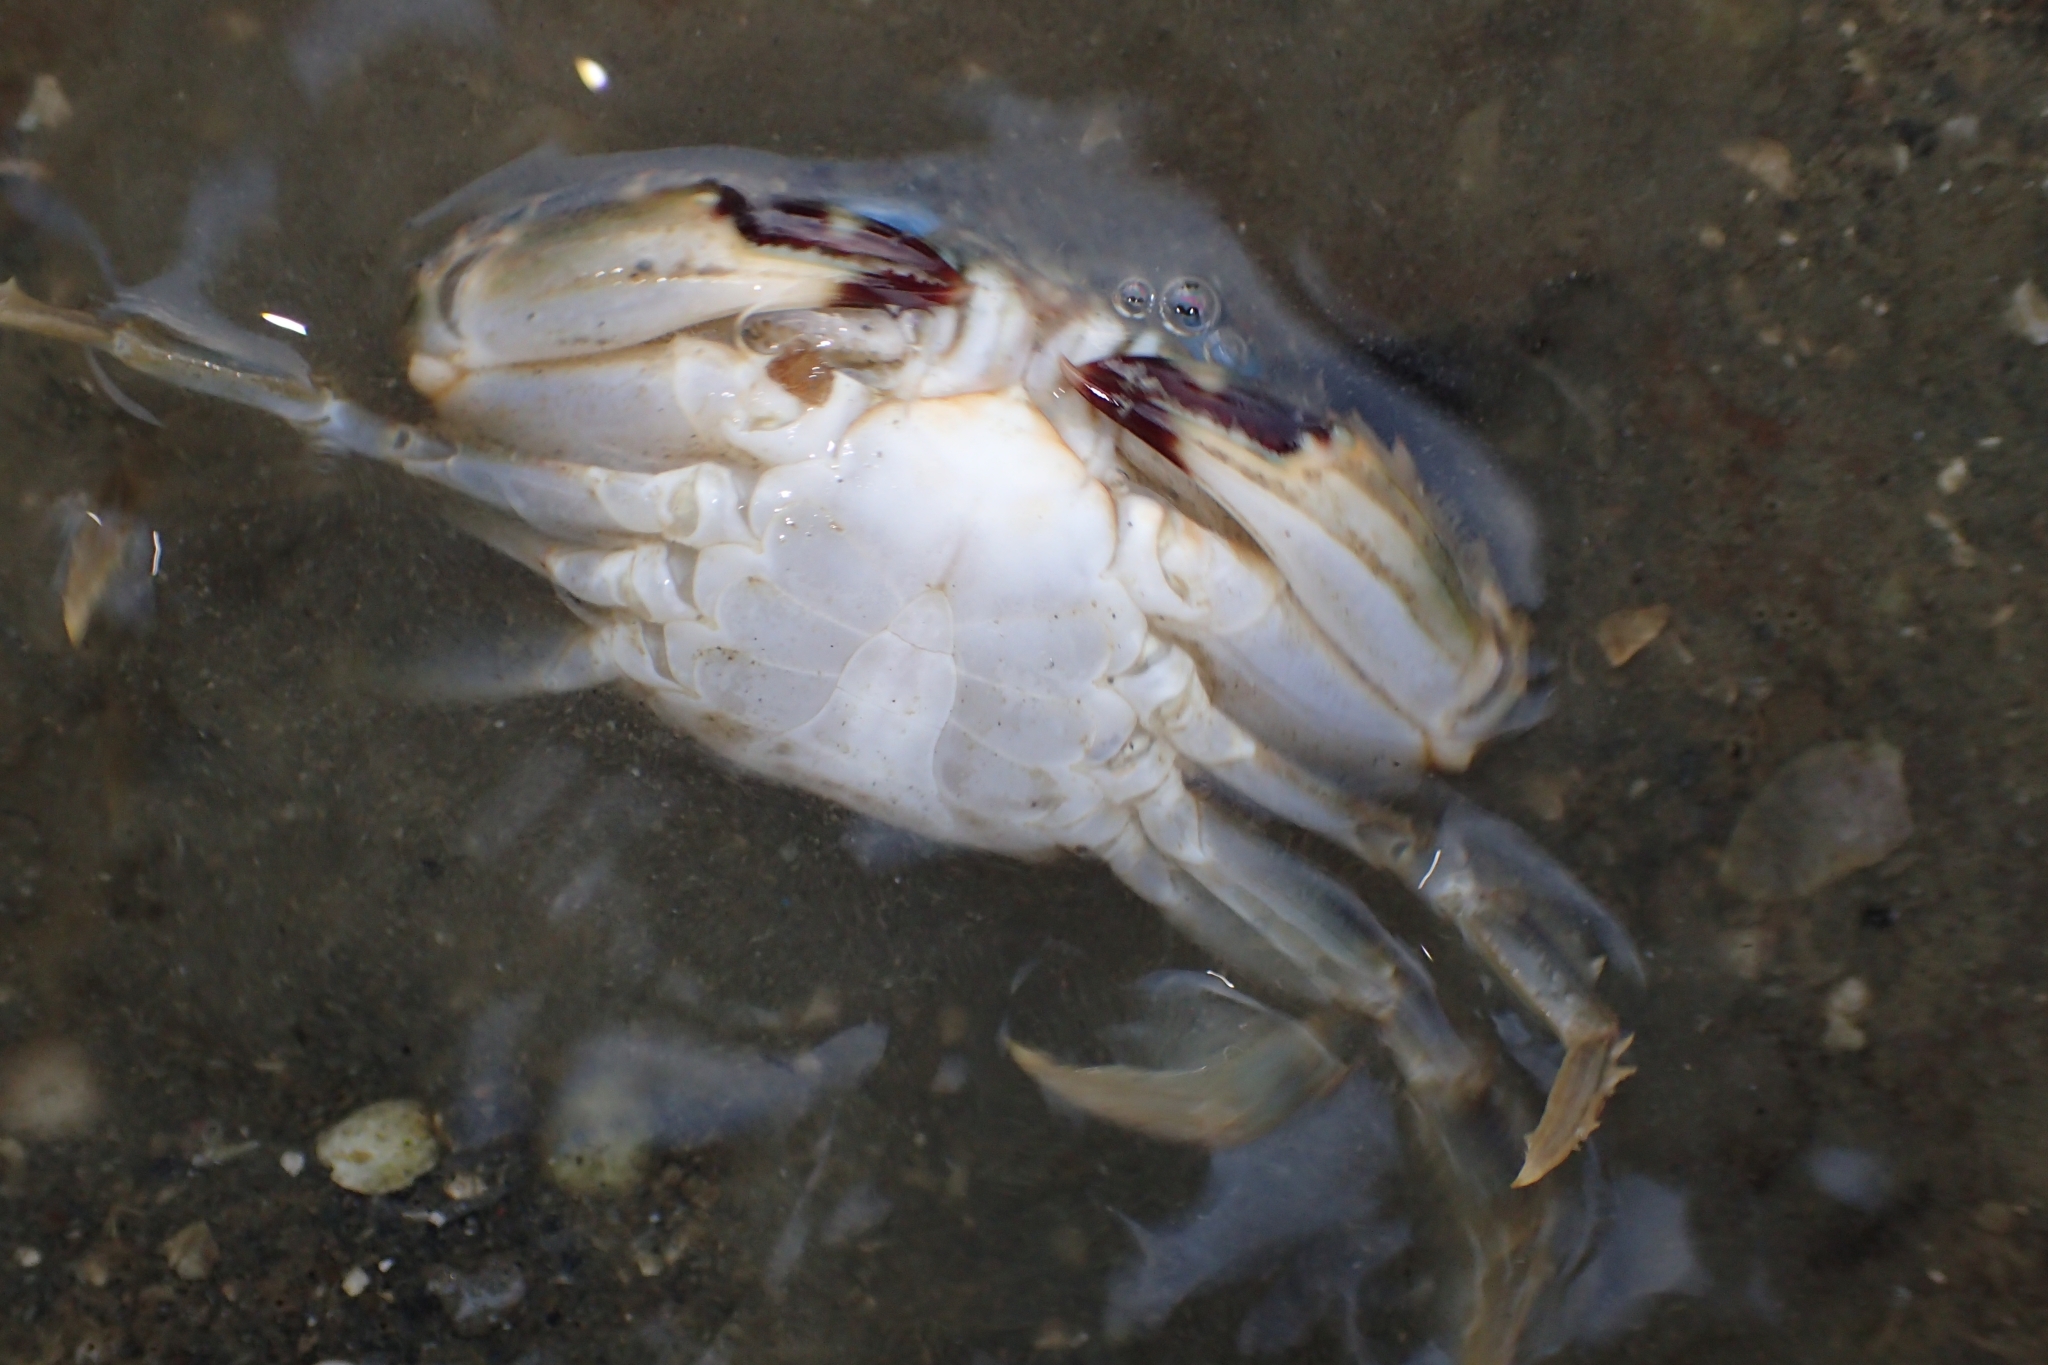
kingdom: Animalia
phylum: Arthropoda
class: Malacostraca
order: Decapoda
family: Portunidae
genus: Charybdis
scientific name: Charybdis japonica
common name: Asian paddle crab
